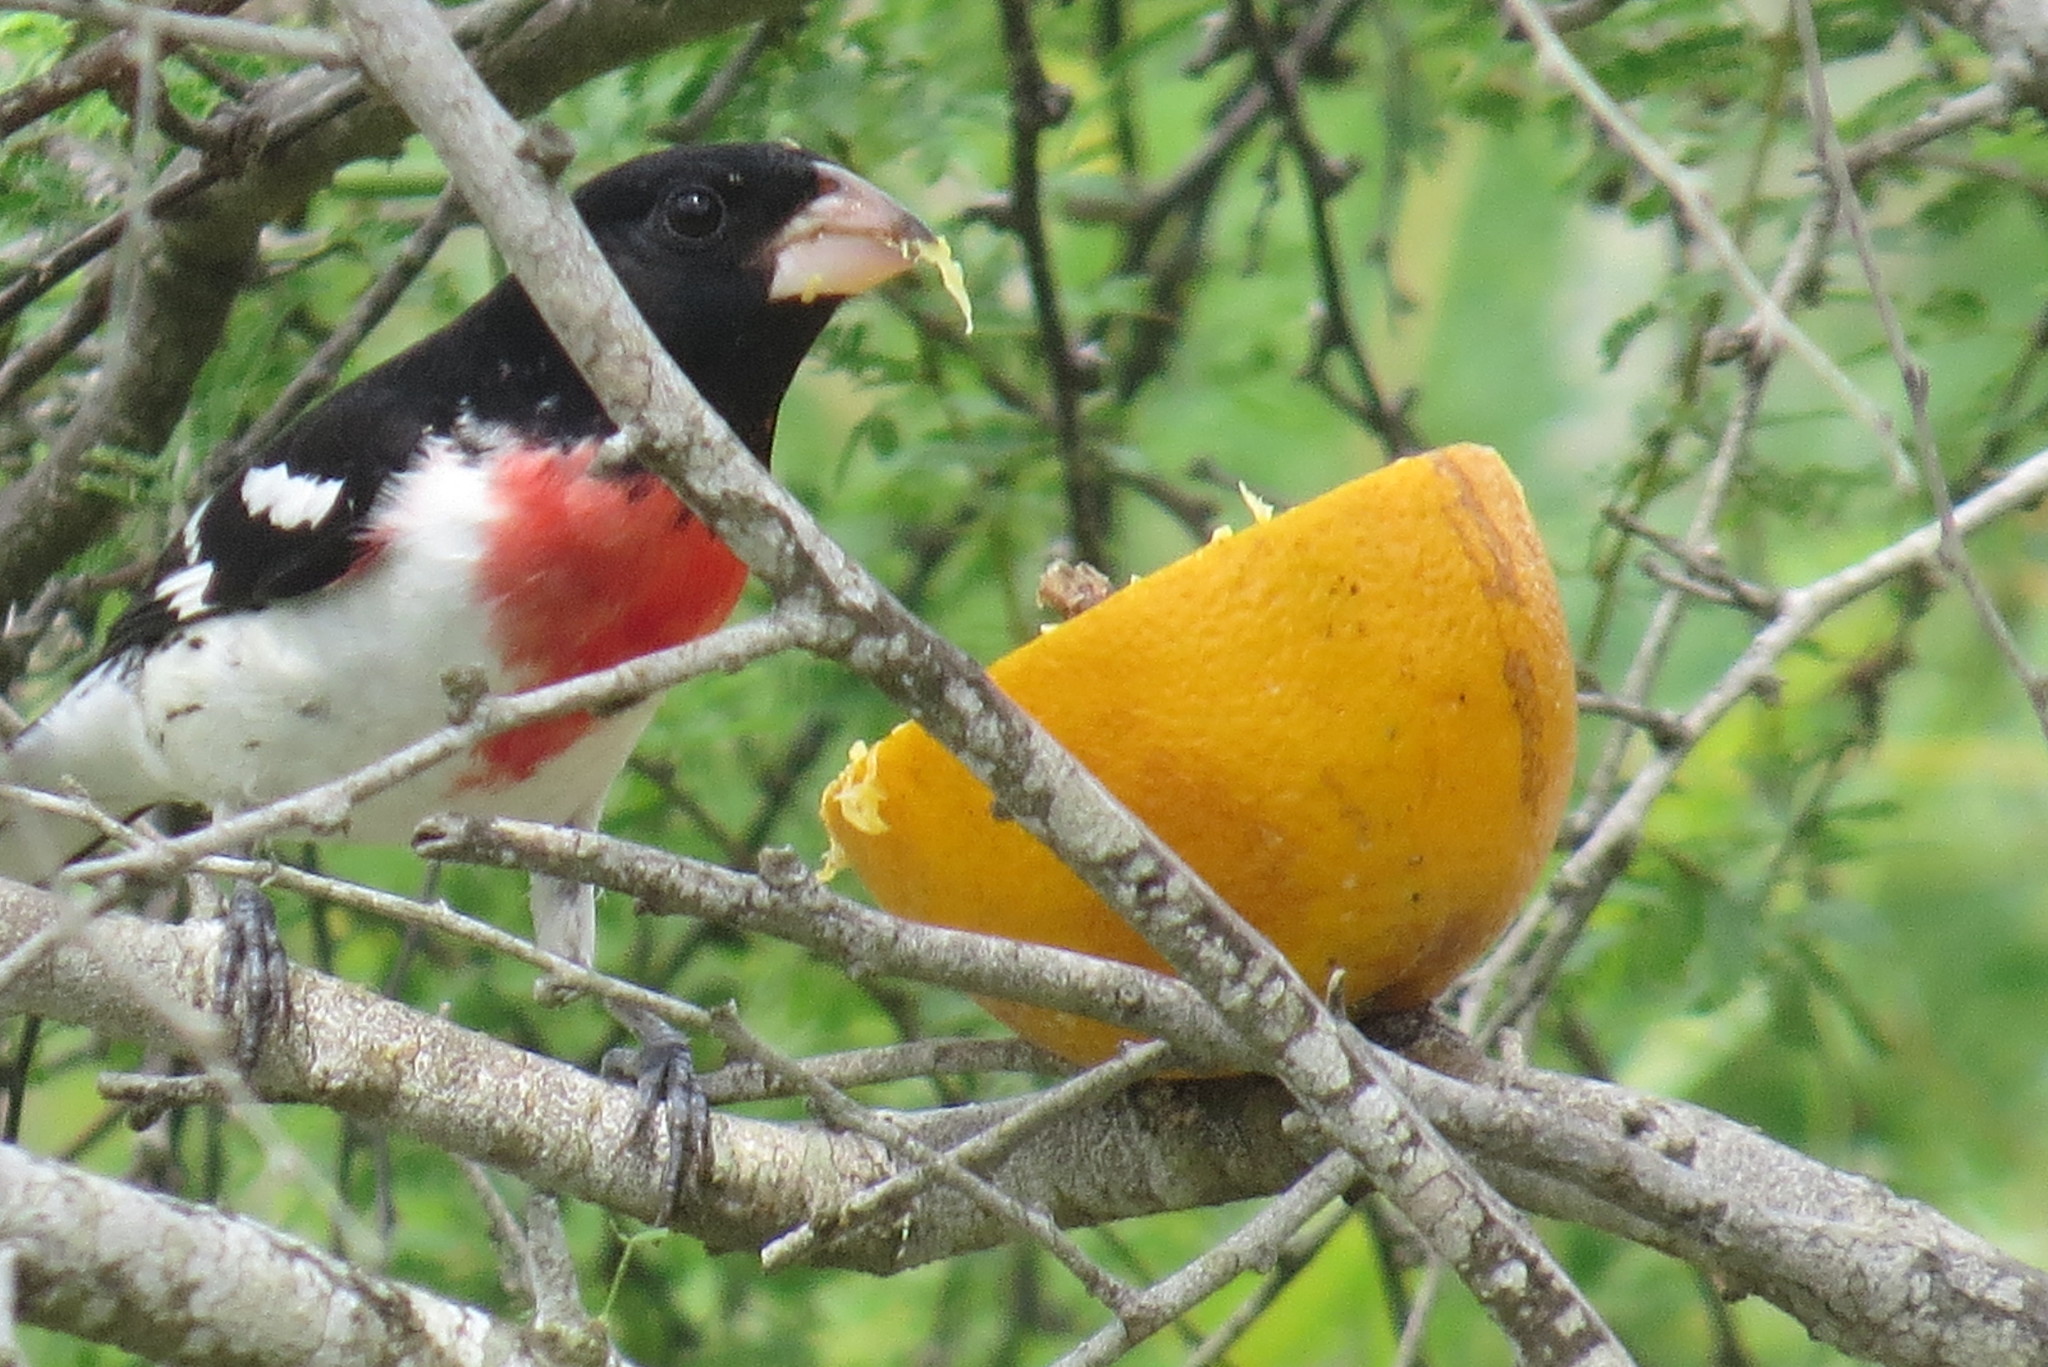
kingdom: Animalia
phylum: Chordata
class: Aves
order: Passeriformes
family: Cardinalidae
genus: Pheucticus
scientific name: Pheucticus ludovicianus
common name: Rose-breasted grosbeak
